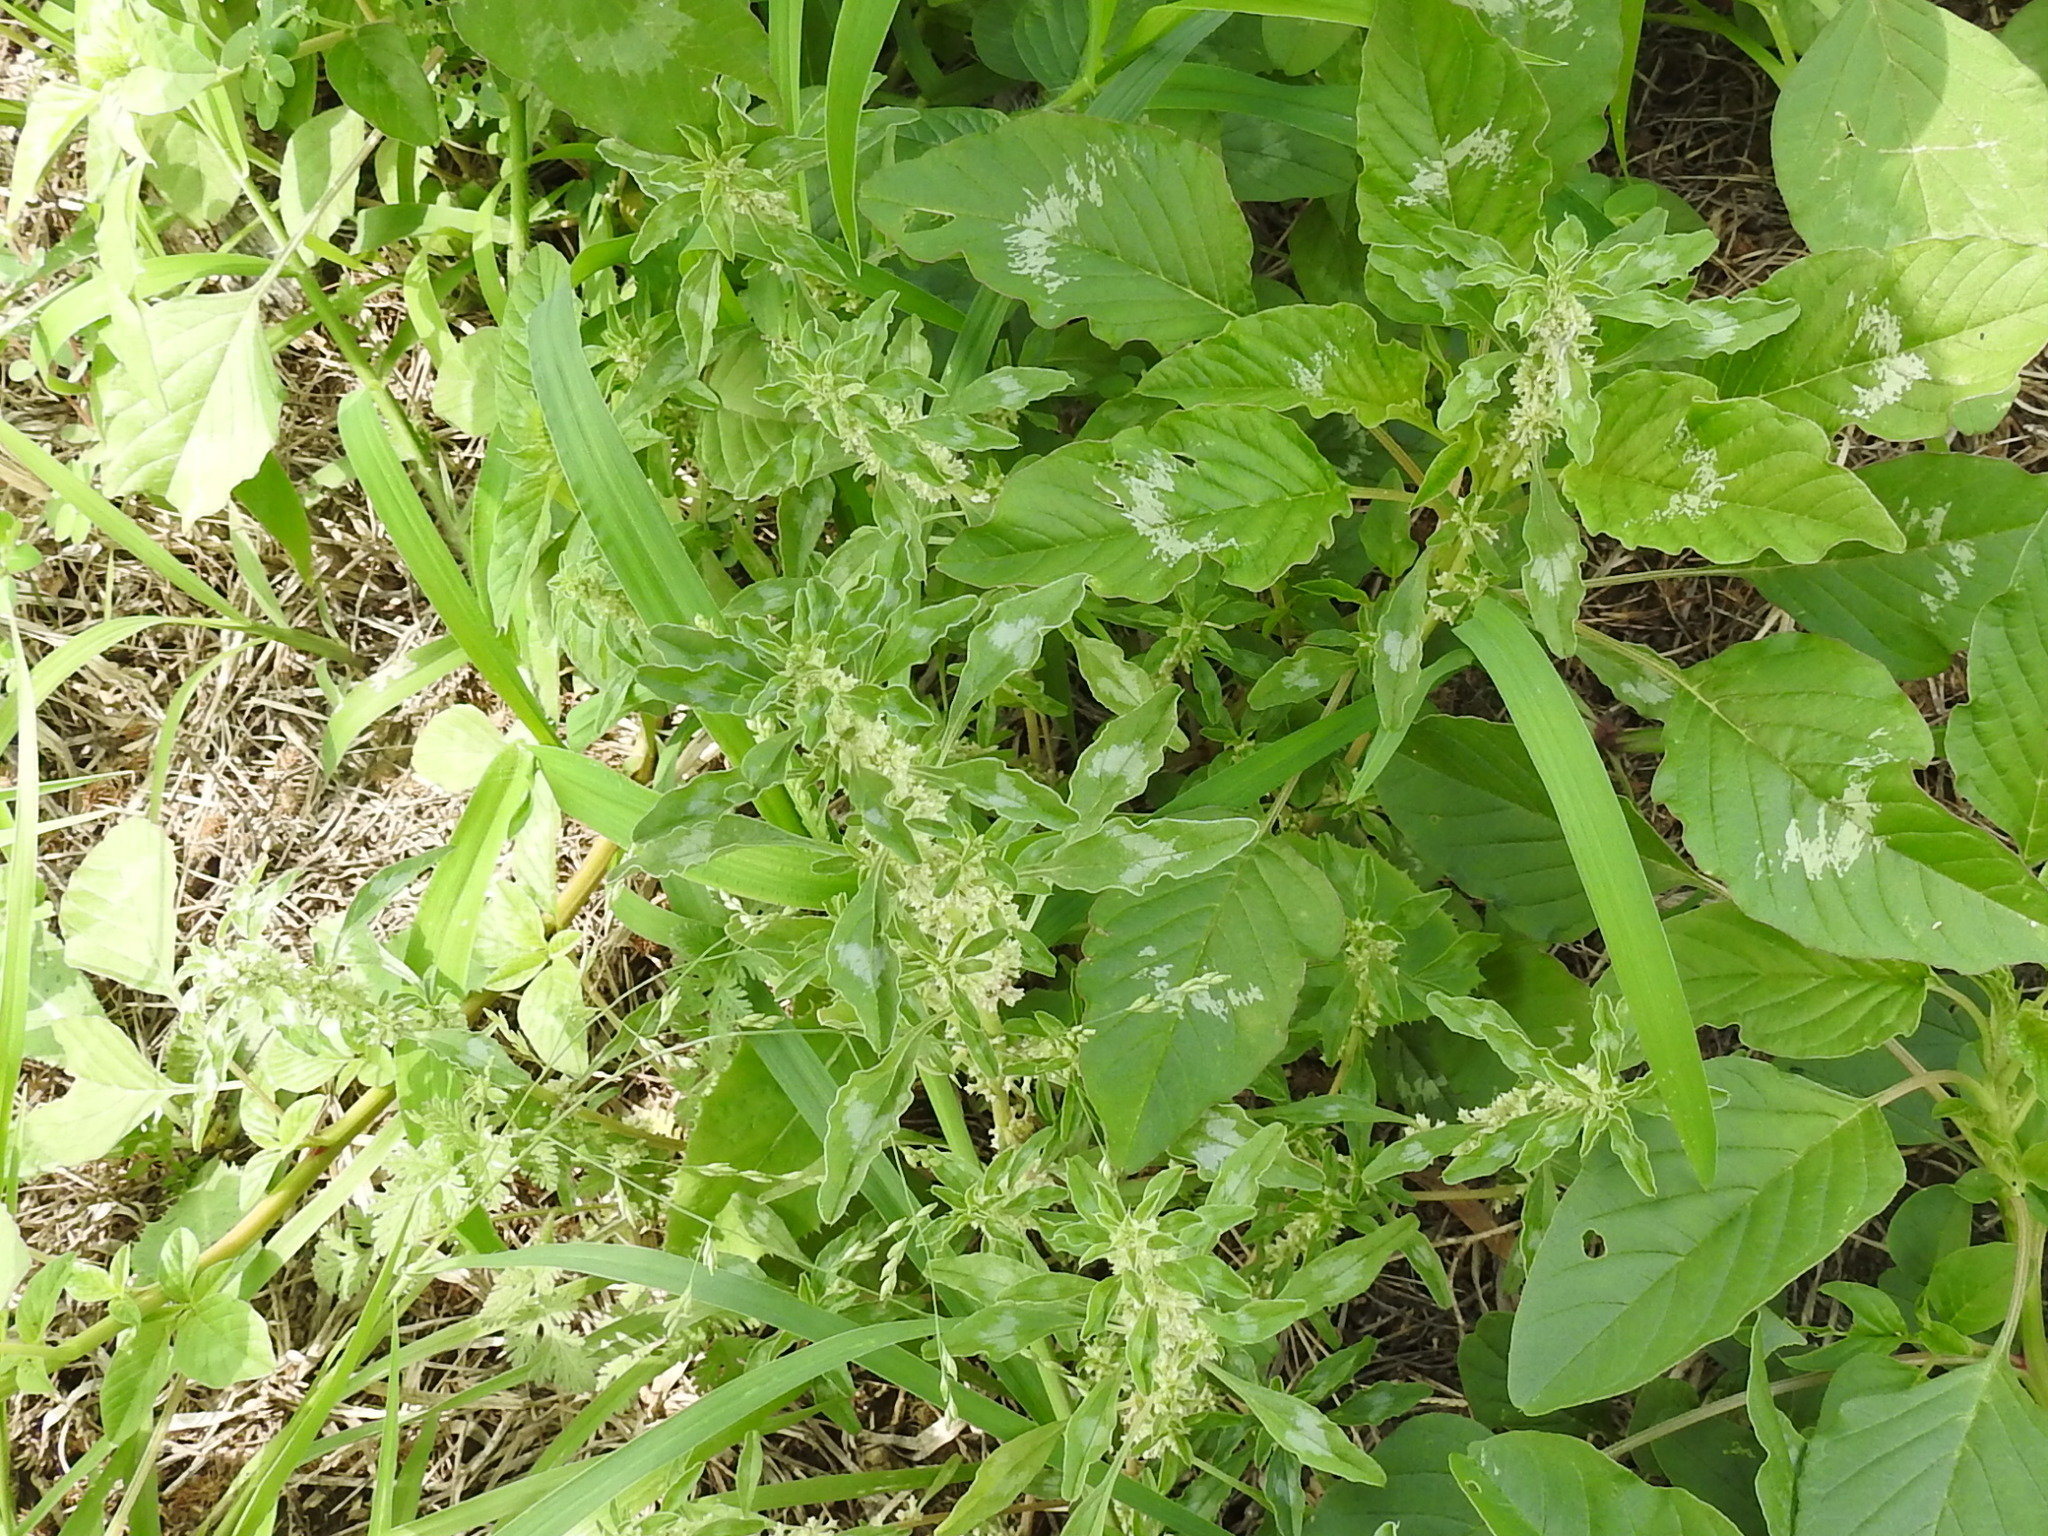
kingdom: Plantae
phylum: Tracheophyta
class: Magnoliopsida
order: Caryophyllales
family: Amaranthaceae
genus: Amaranthus
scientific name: Amaranthus polygonoides
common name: Tropical amaranth
